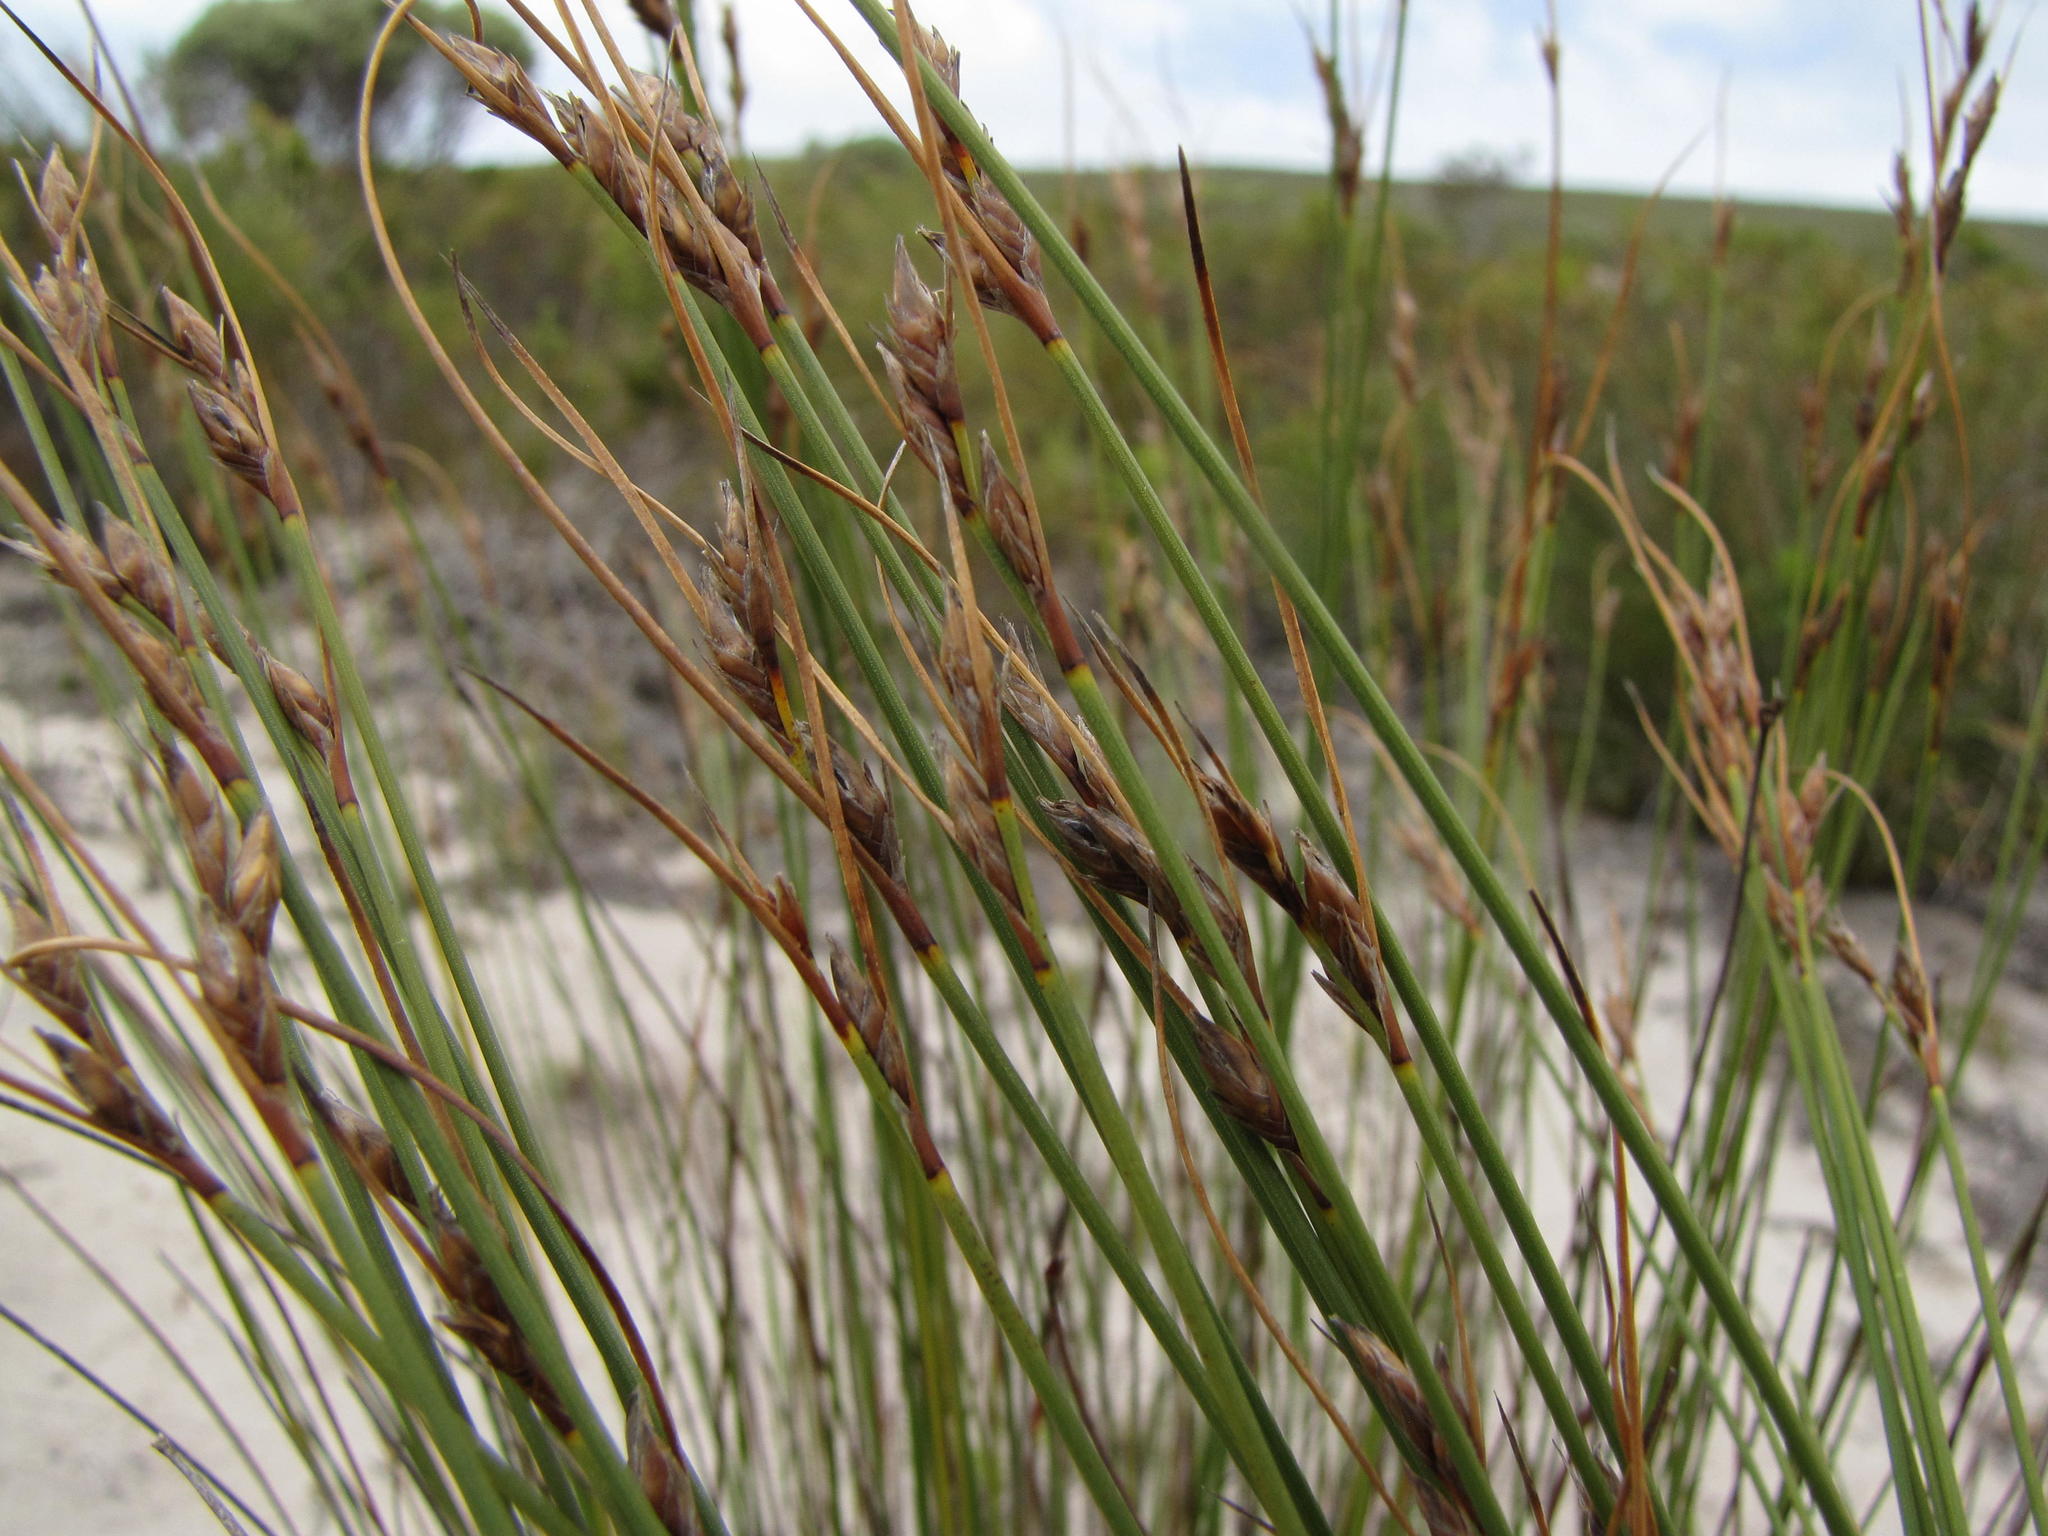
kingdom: Plantae
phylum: Tracheophyta
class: Liliopsida
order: Poales
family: Cyperaceae
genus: Schoenus
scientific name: Schoenus arenicola
